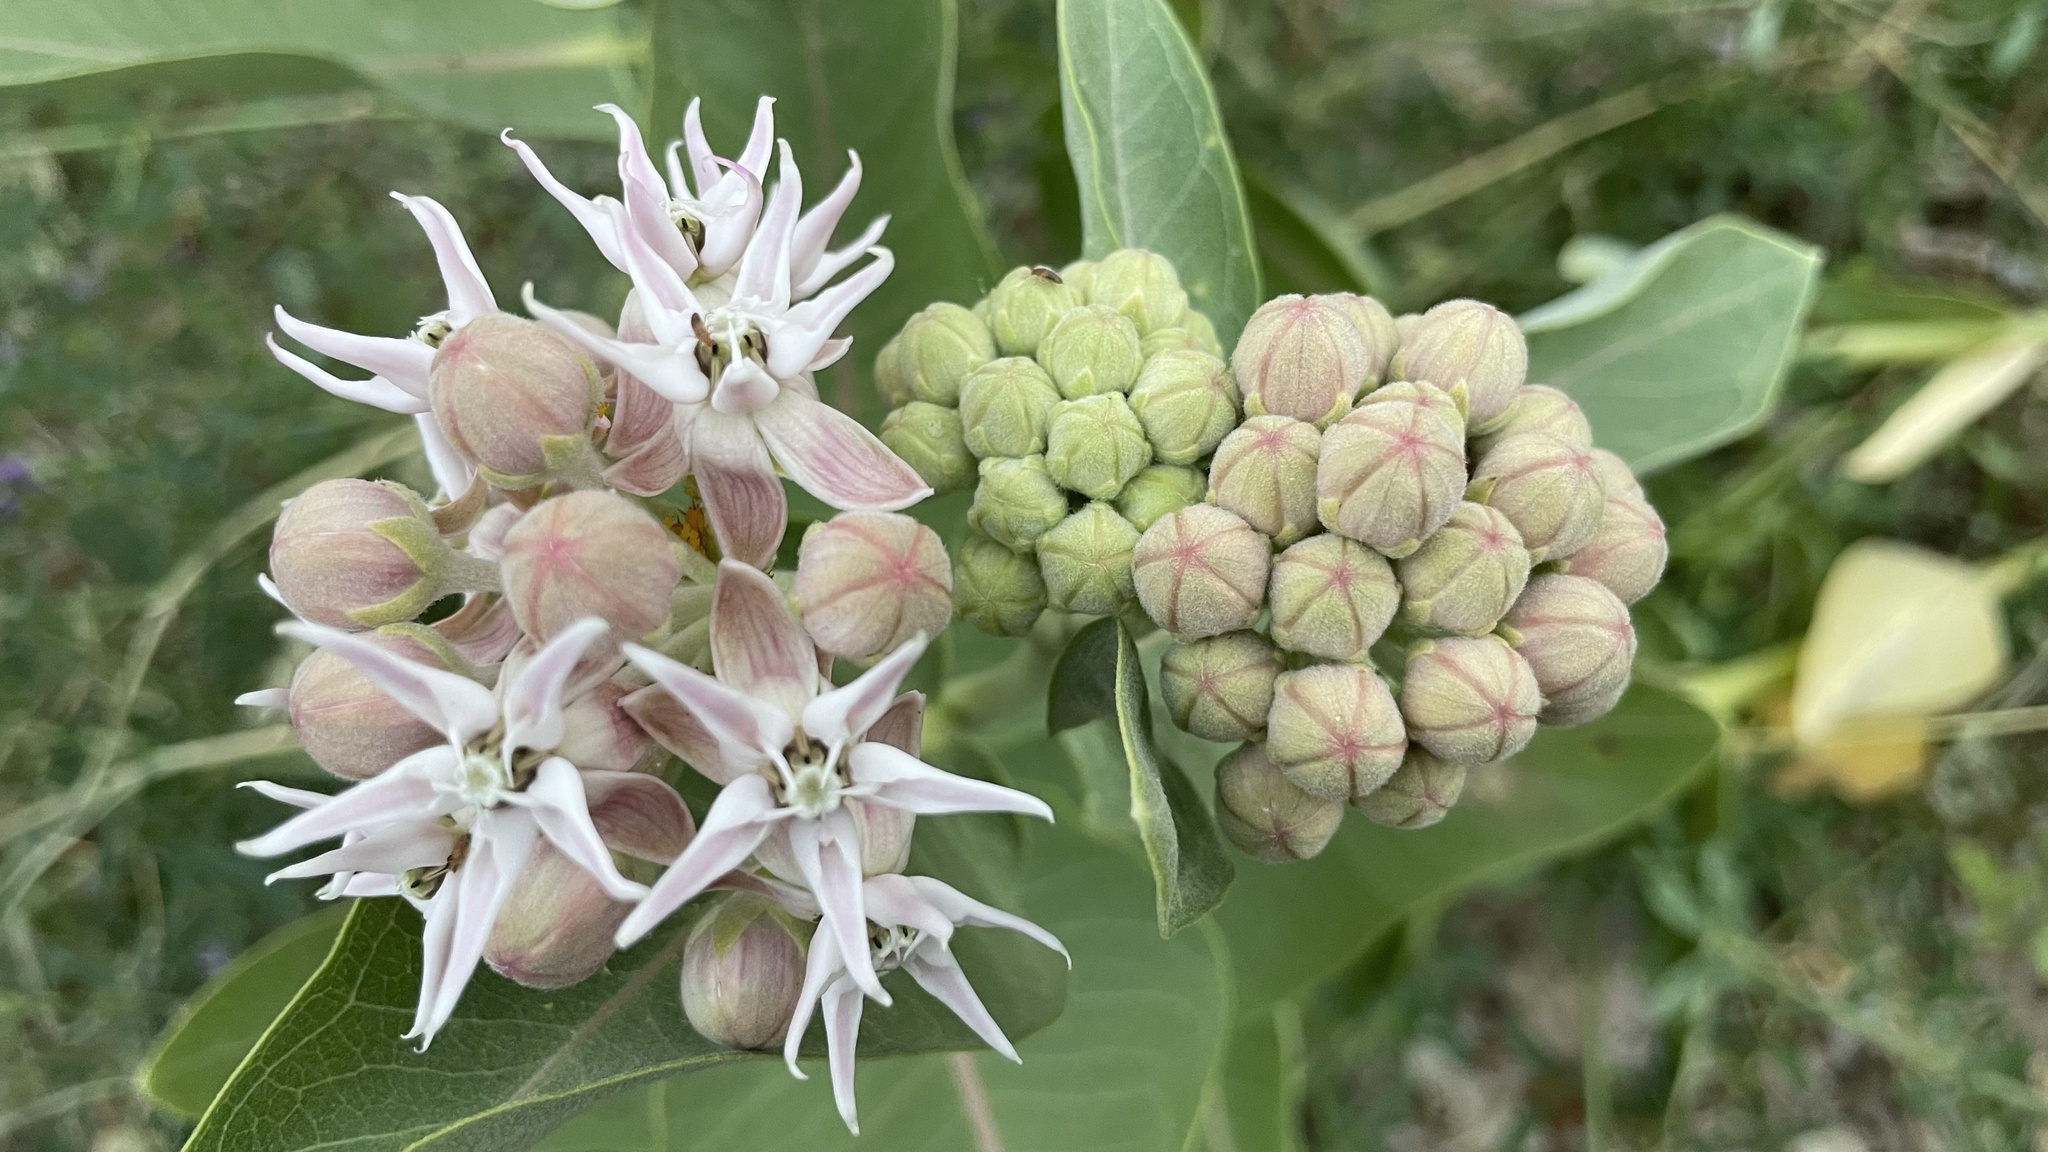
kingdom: Plantae
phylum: Tracheophyta
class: Magnoliopsida
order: Gentianales
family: Apocynaceae
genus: Asclepias
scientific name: Asclepias speciosa
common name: Showy milkweed
